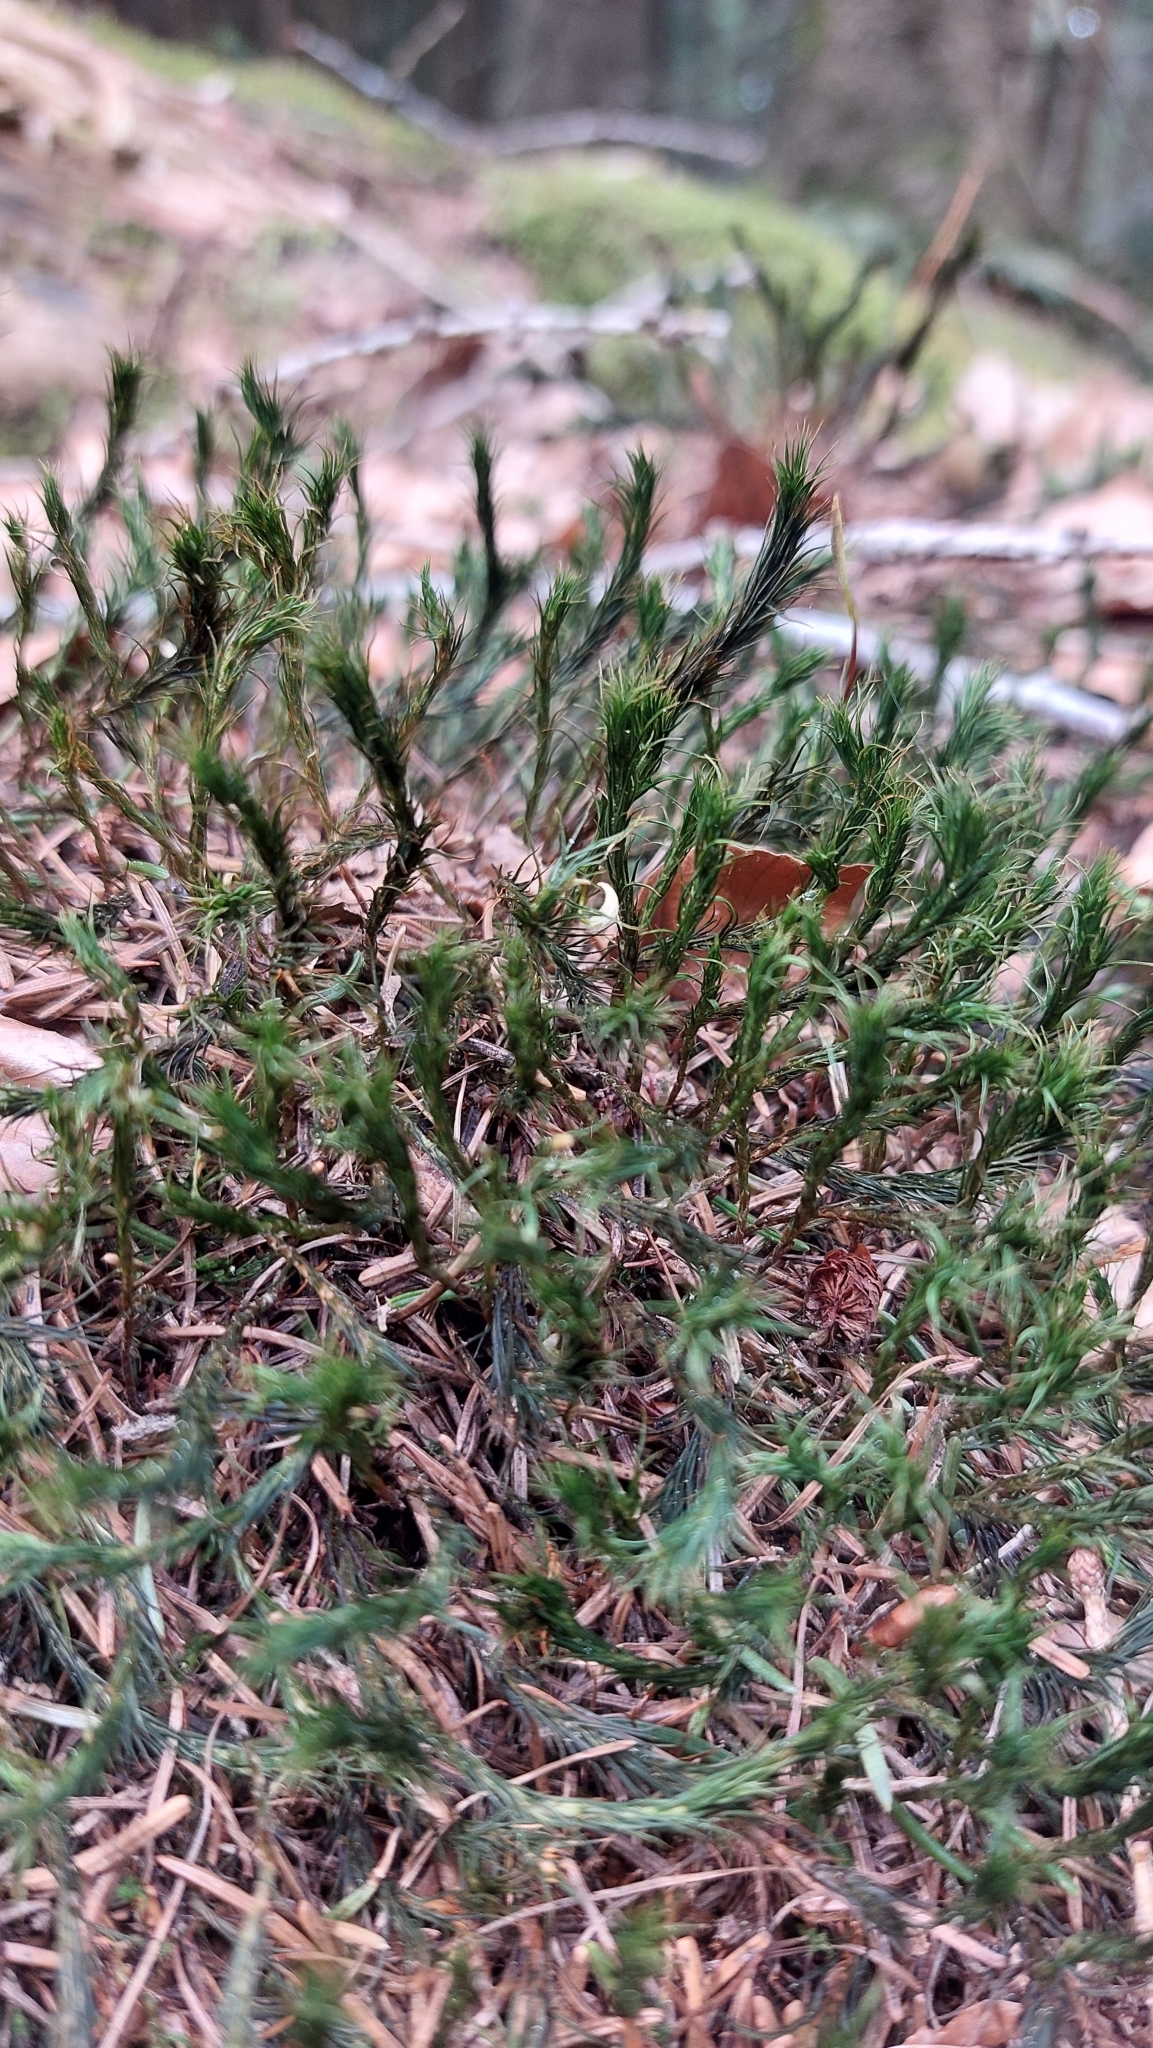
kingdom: Plantae
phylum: Bryophyta
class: Polytrichopsida
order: Polytrichales
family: Polytrichaceae
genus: Polytrichum
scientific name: Polytrichum formosum
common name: Bank haircap moss
